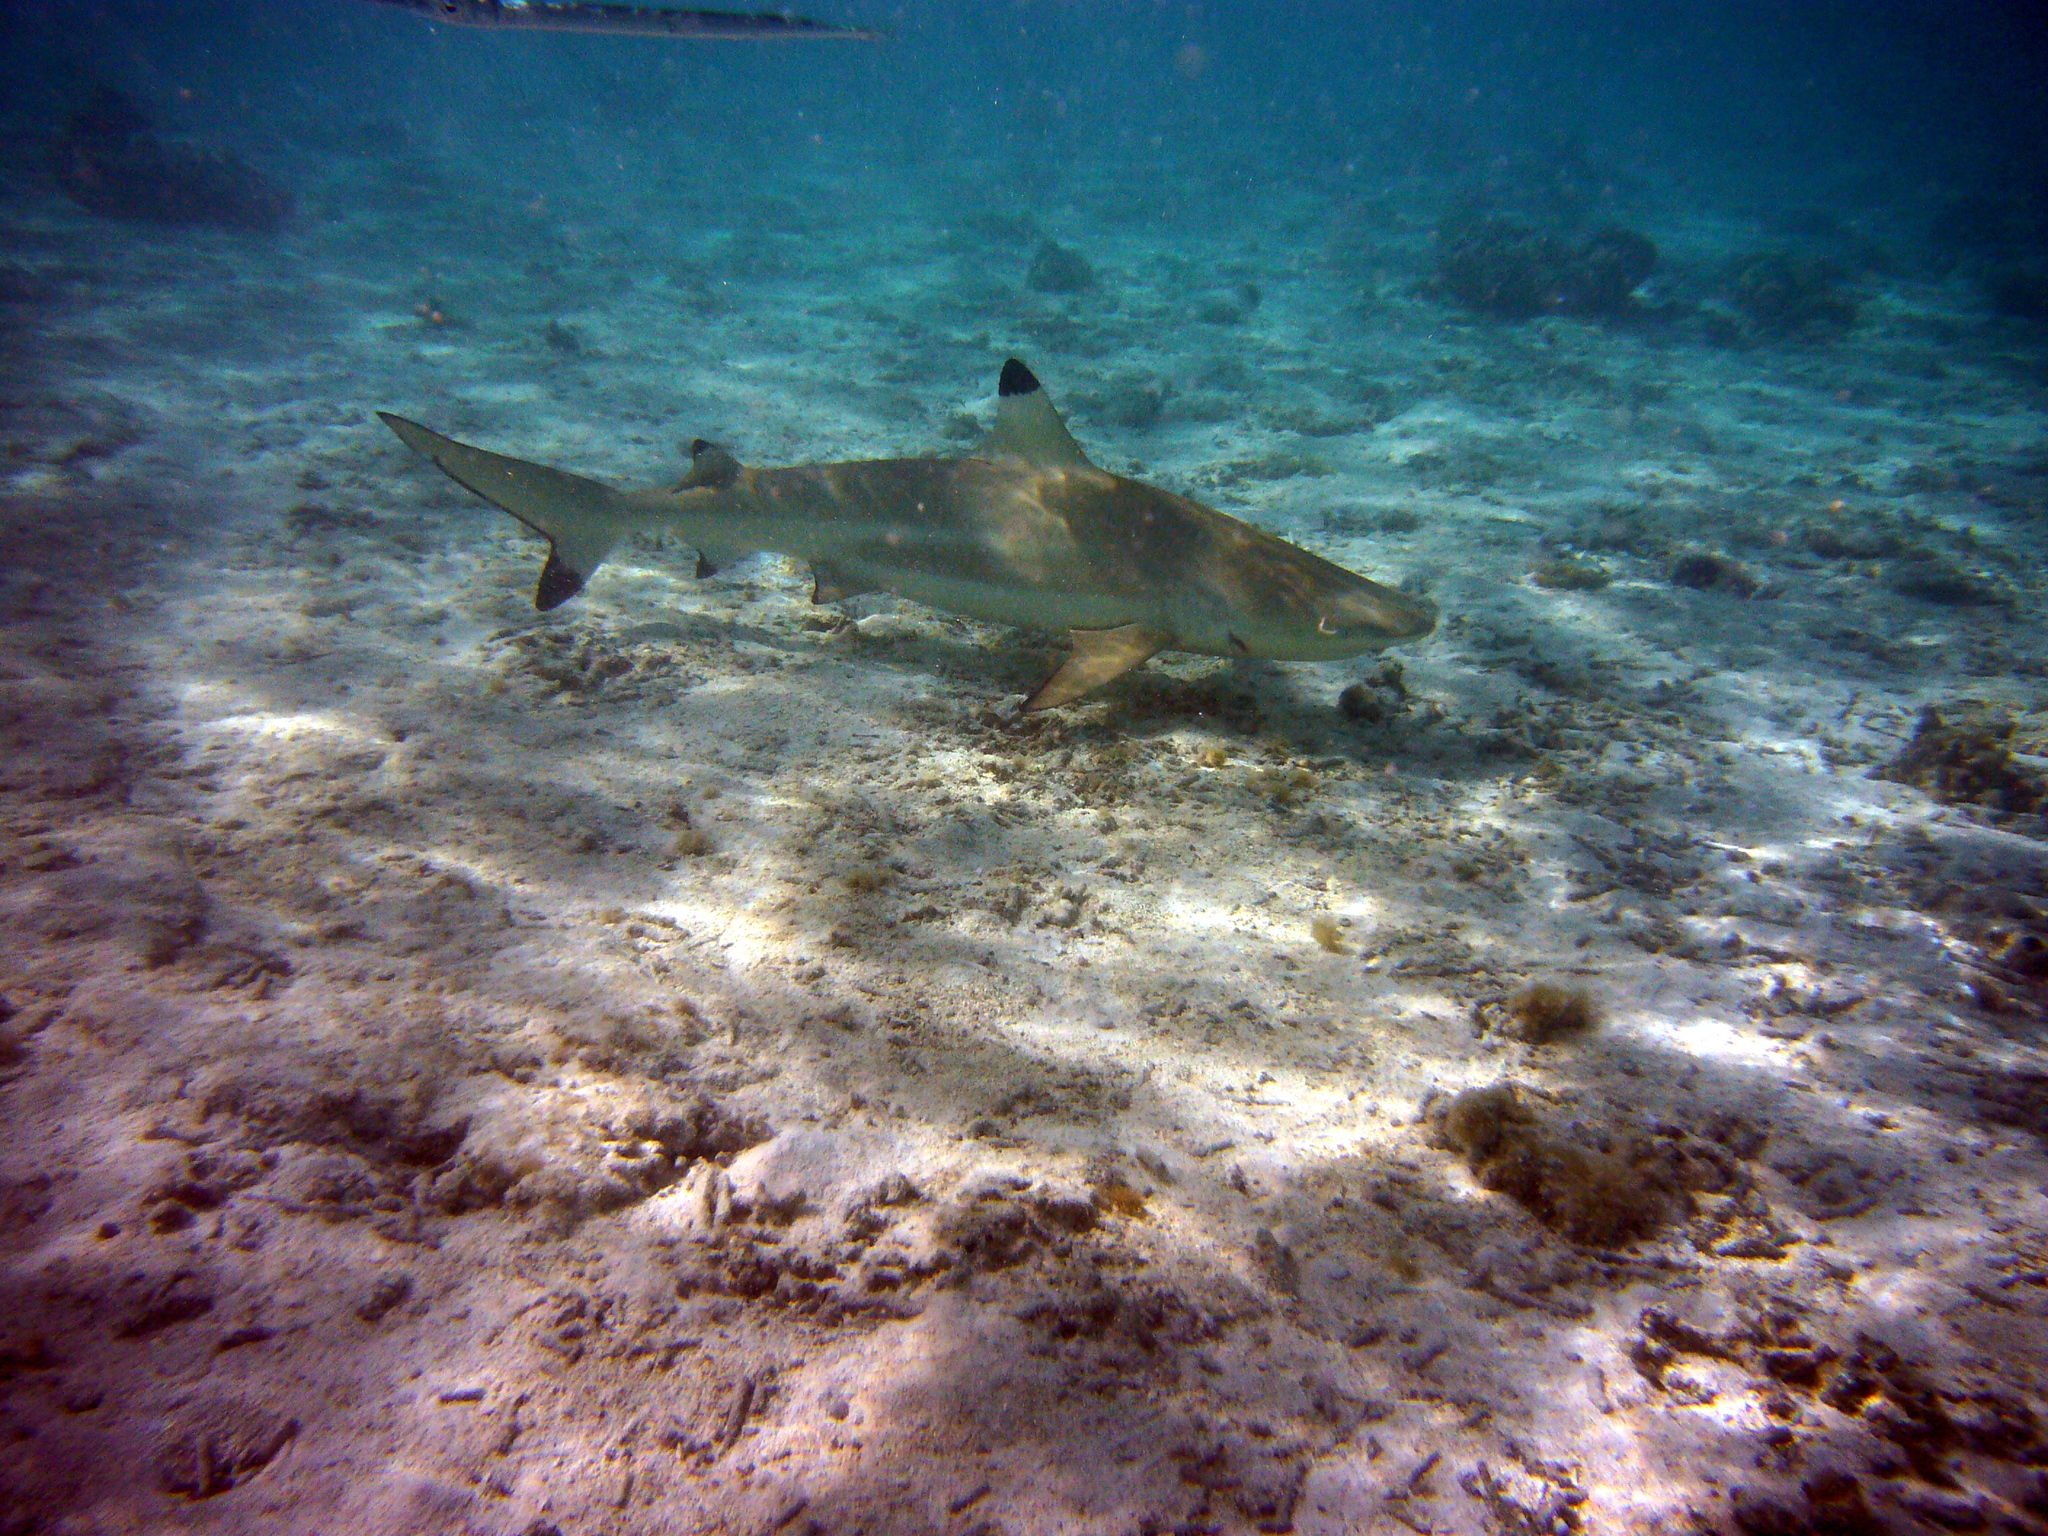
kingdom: Animalia
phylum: Chordata
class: Elasmobranchii
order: Carcharhiniformes
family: Carcharhinidae
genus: Carcharhinus
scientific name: Carcharhinus melanopterus
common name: Blacktip reef shark
